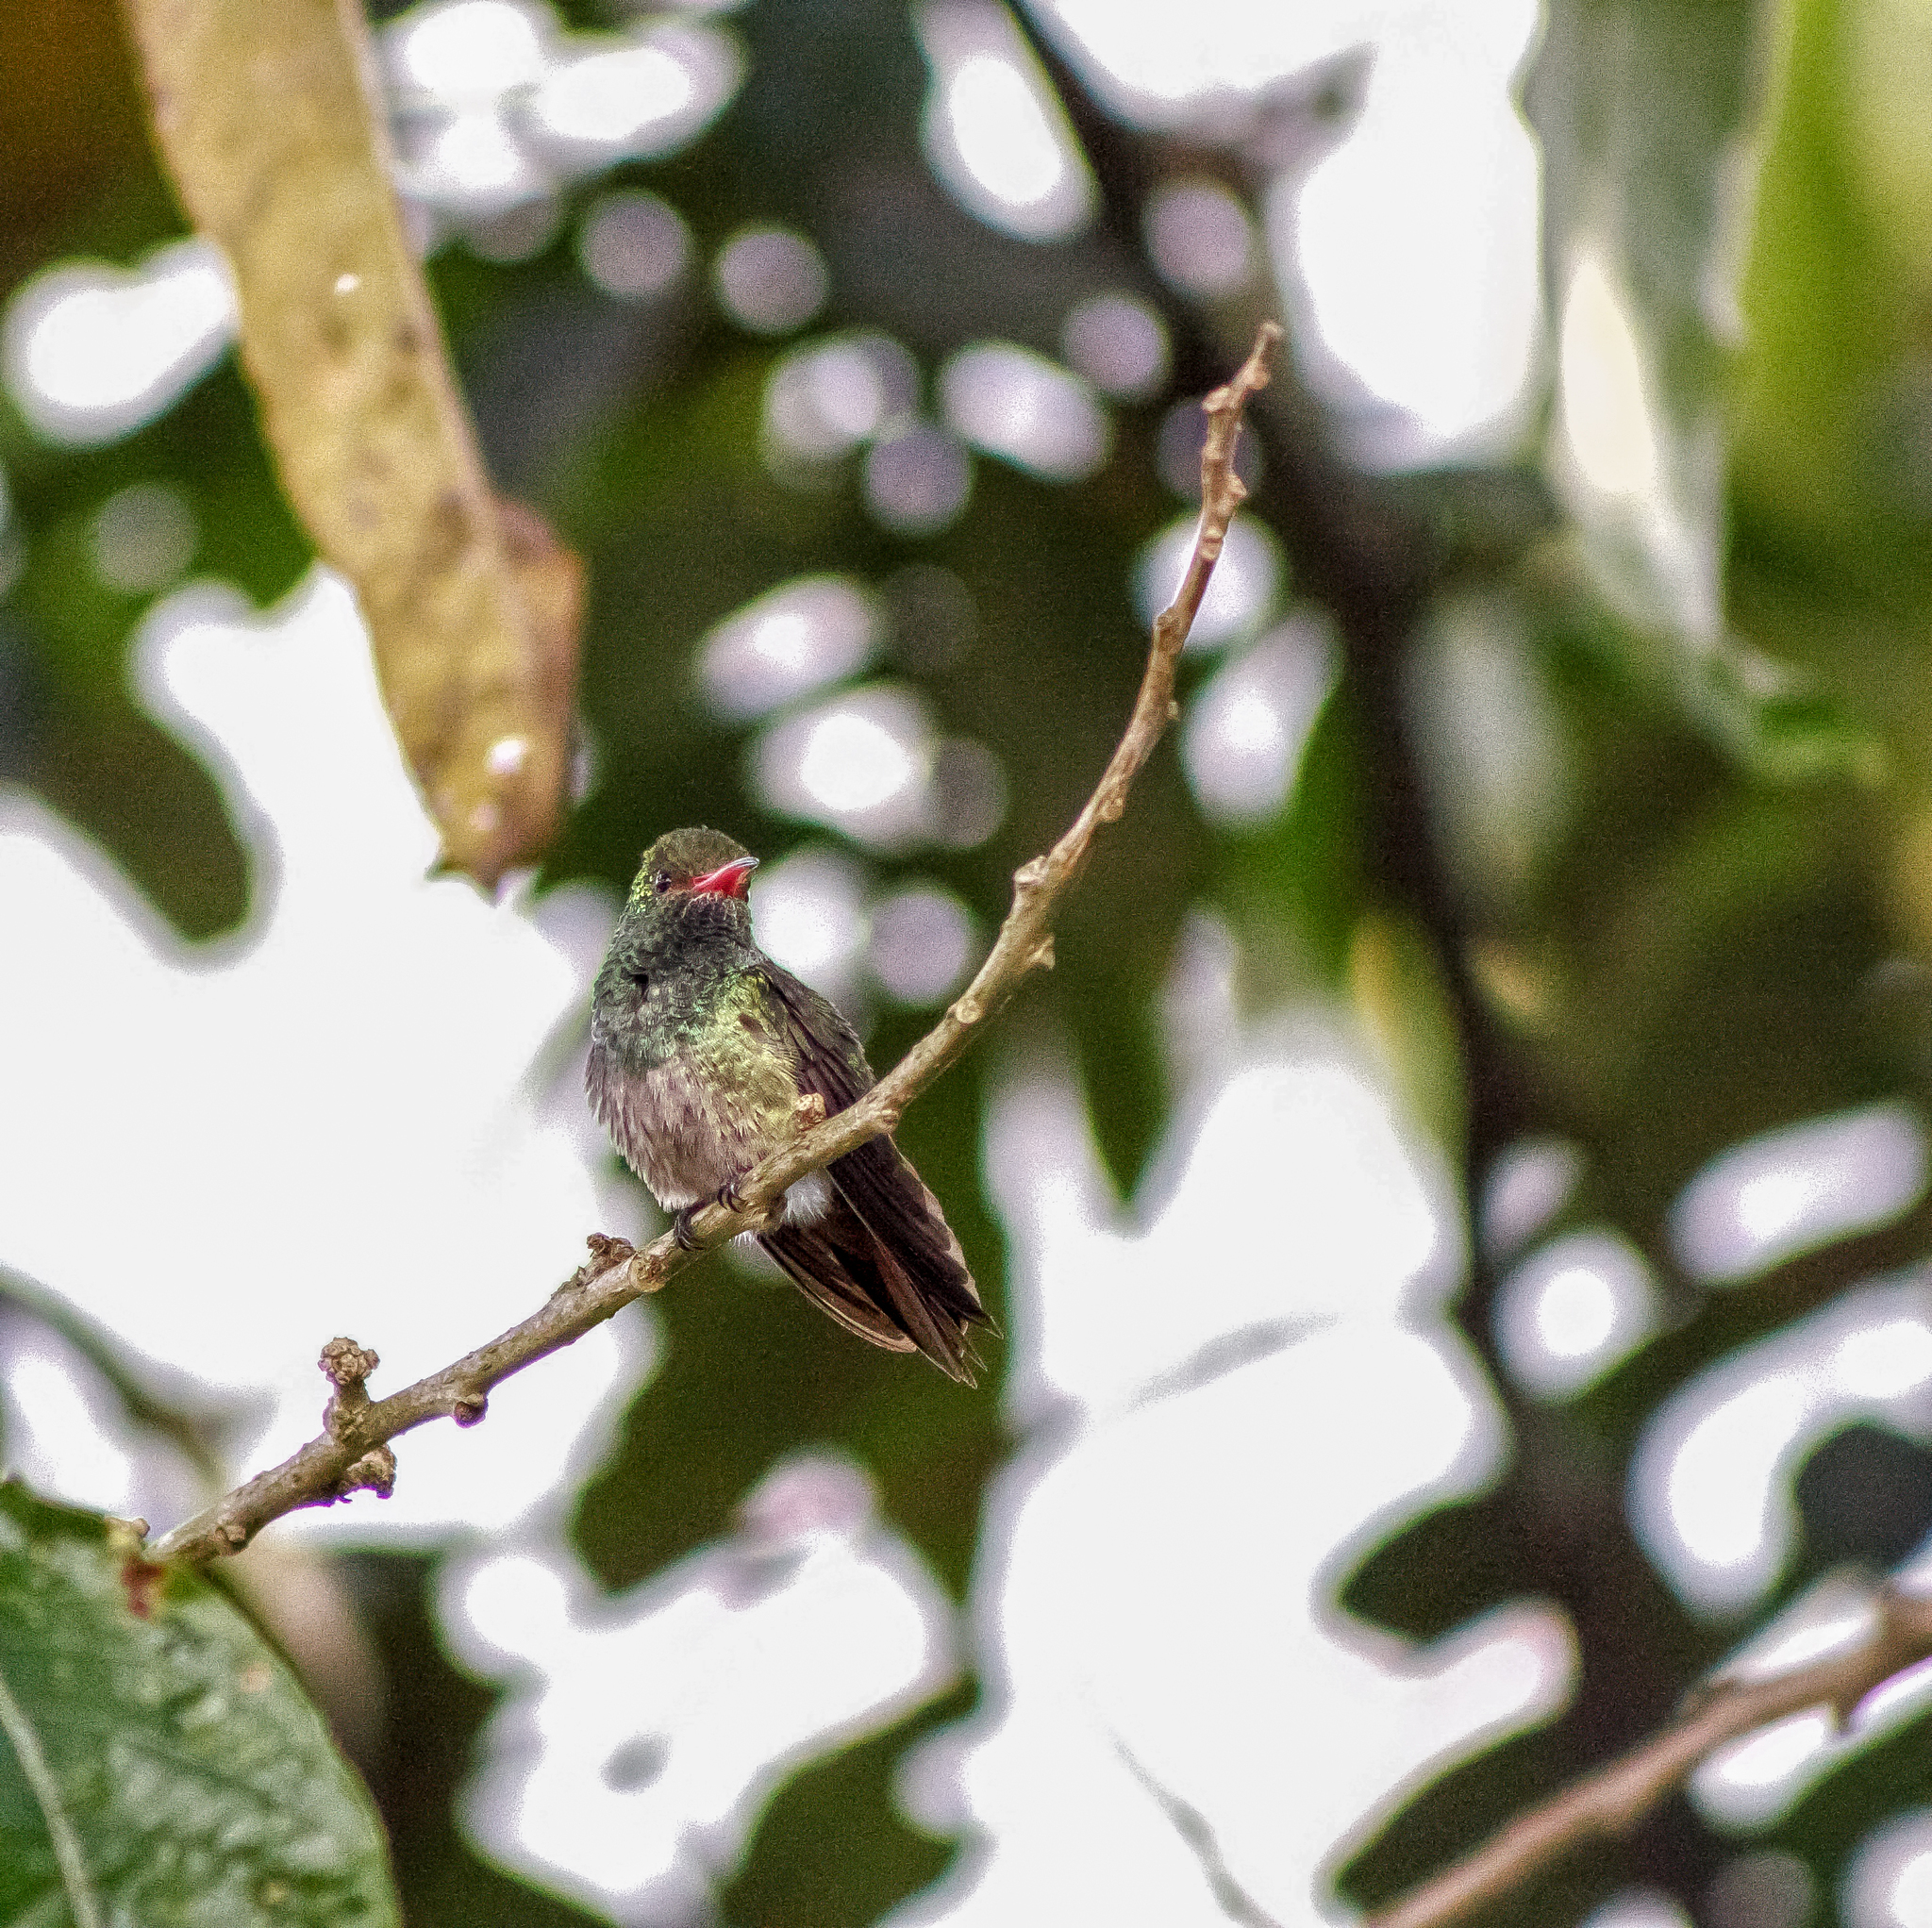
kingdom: Animalia
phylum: Chordata
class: Aves
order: Apodiformes
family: Trochilidae
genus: Amazilia
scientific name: Amazilia tzacatl
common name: Rufous-tailed hummingbird
